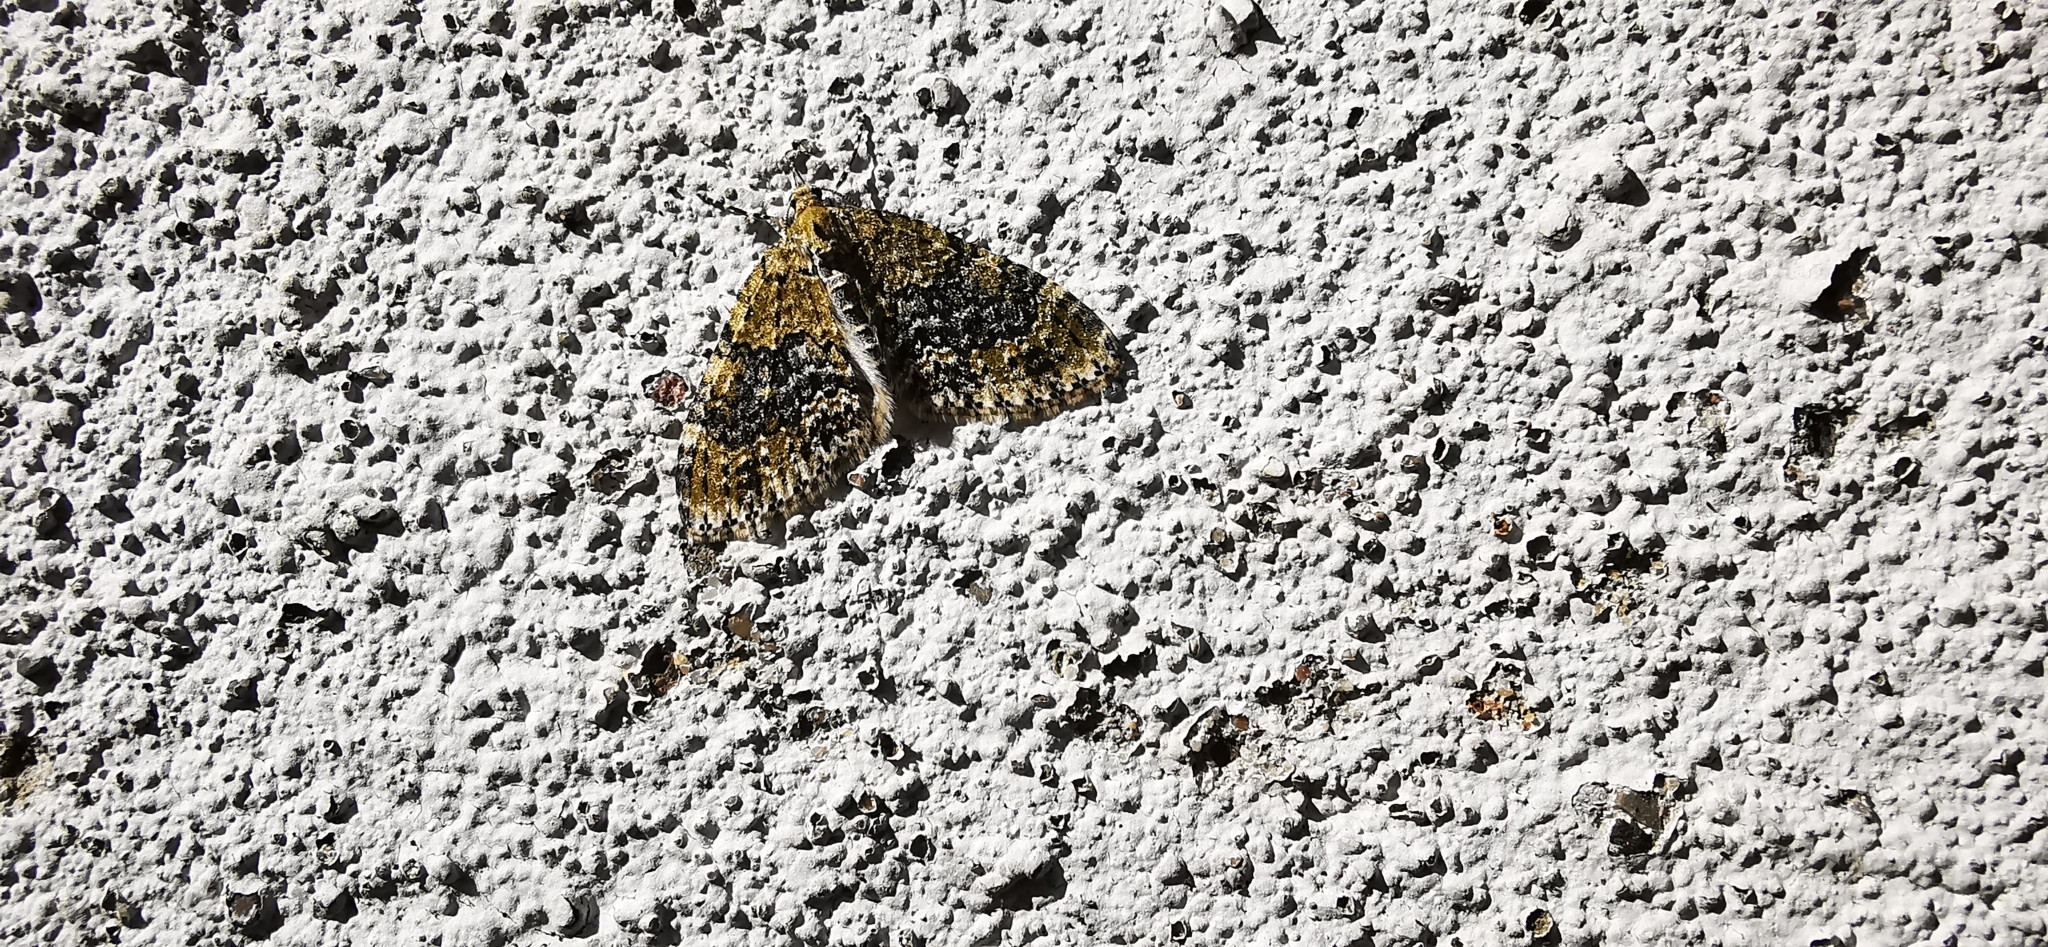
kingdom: Animalia
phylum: Arthropoda
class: Insecta
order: Lepidoptera
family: Geometridae
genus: Acasis
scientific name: Acasis viretata
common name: Yellow-barred brindle
